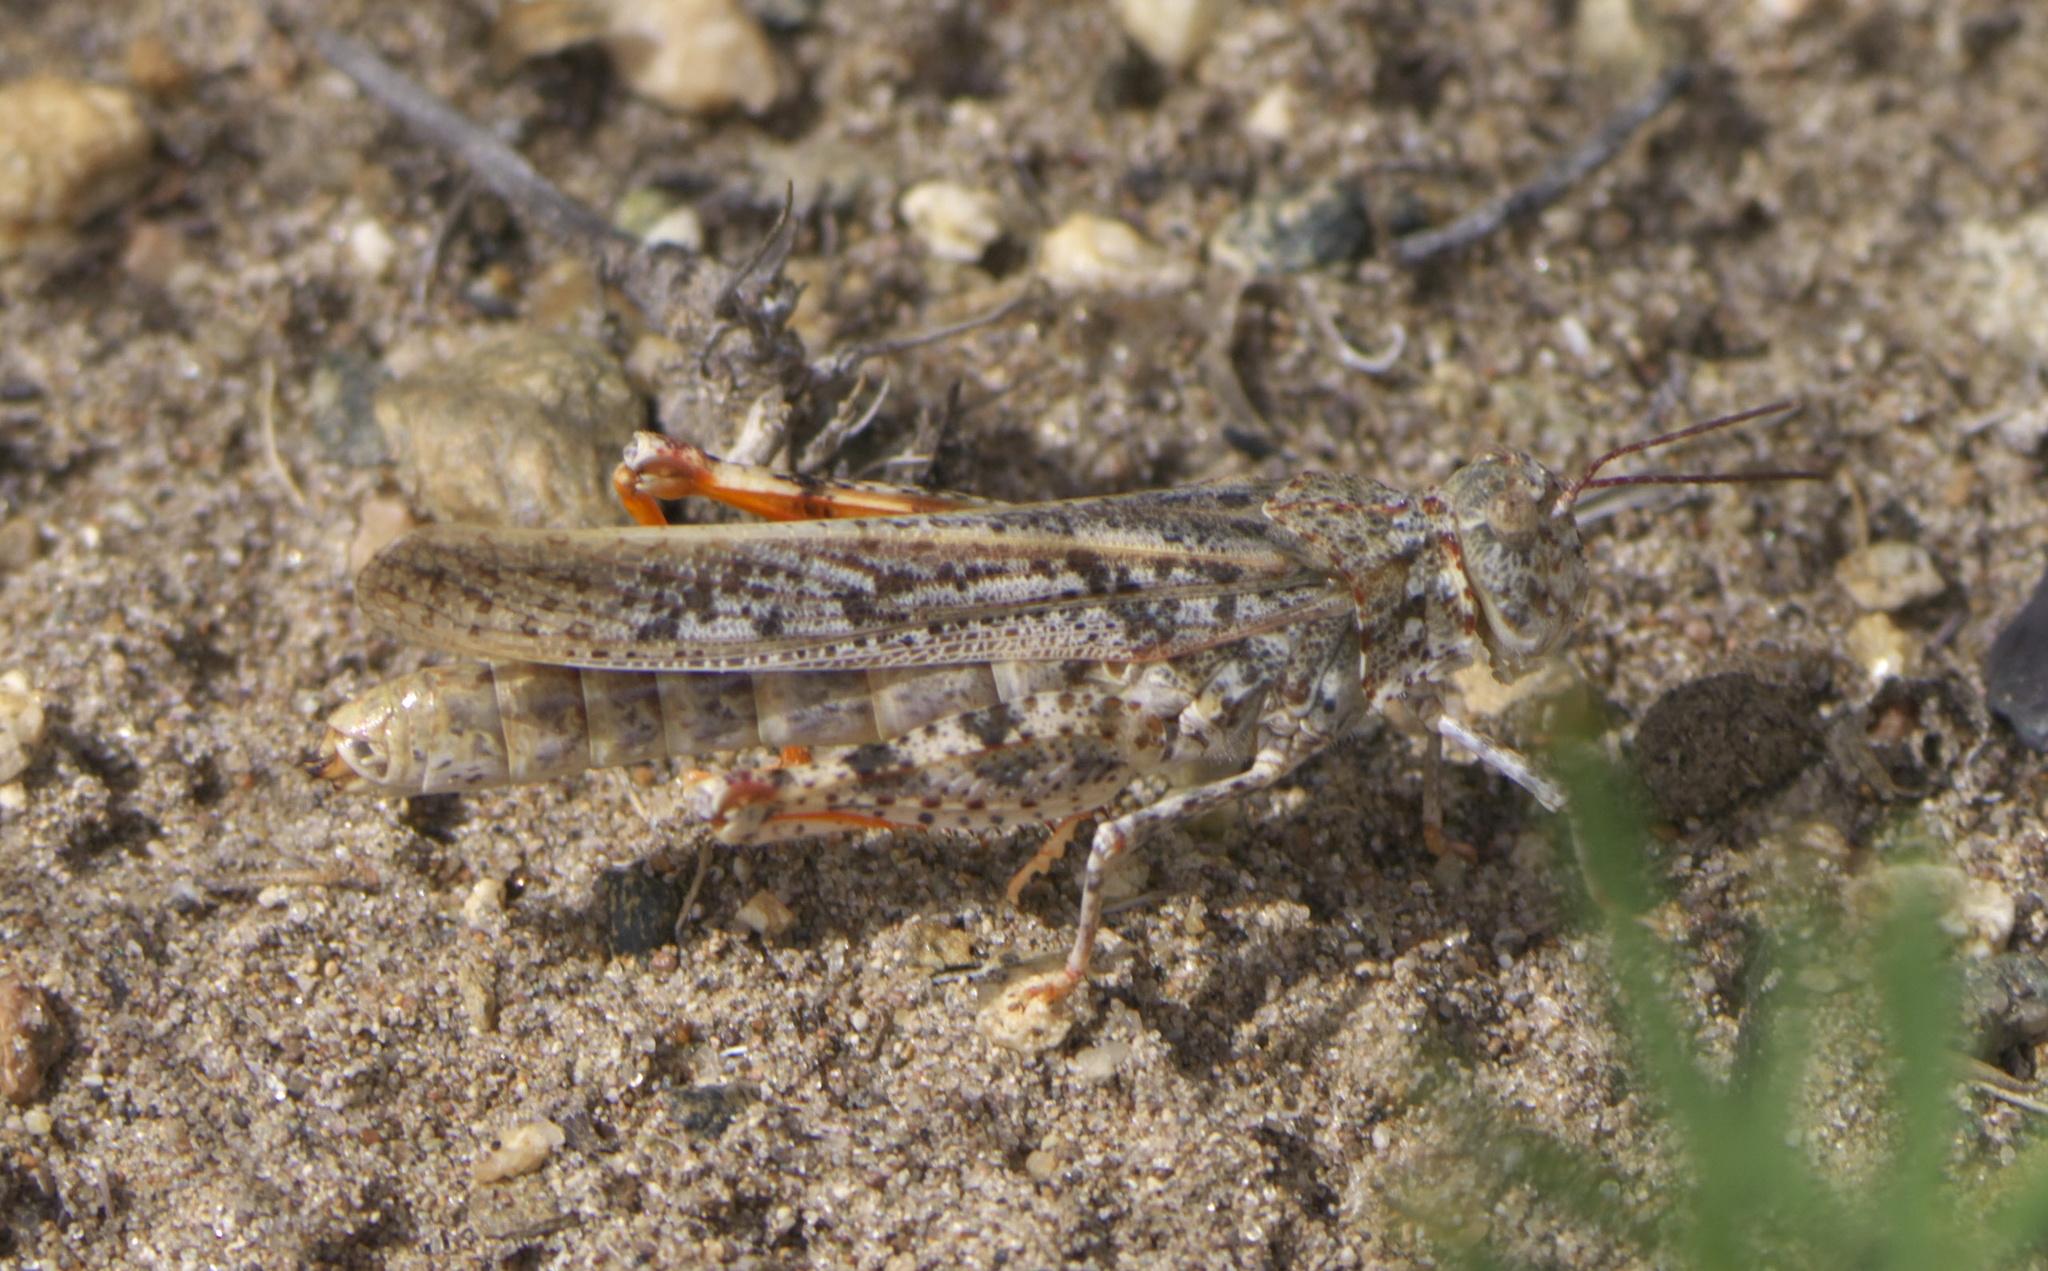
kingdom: Animalia
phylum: Arthropoda
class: Insecta
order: Orthoptera
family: Acrididae
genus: Trimerotropis
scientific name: Trimerotropis barnumi
